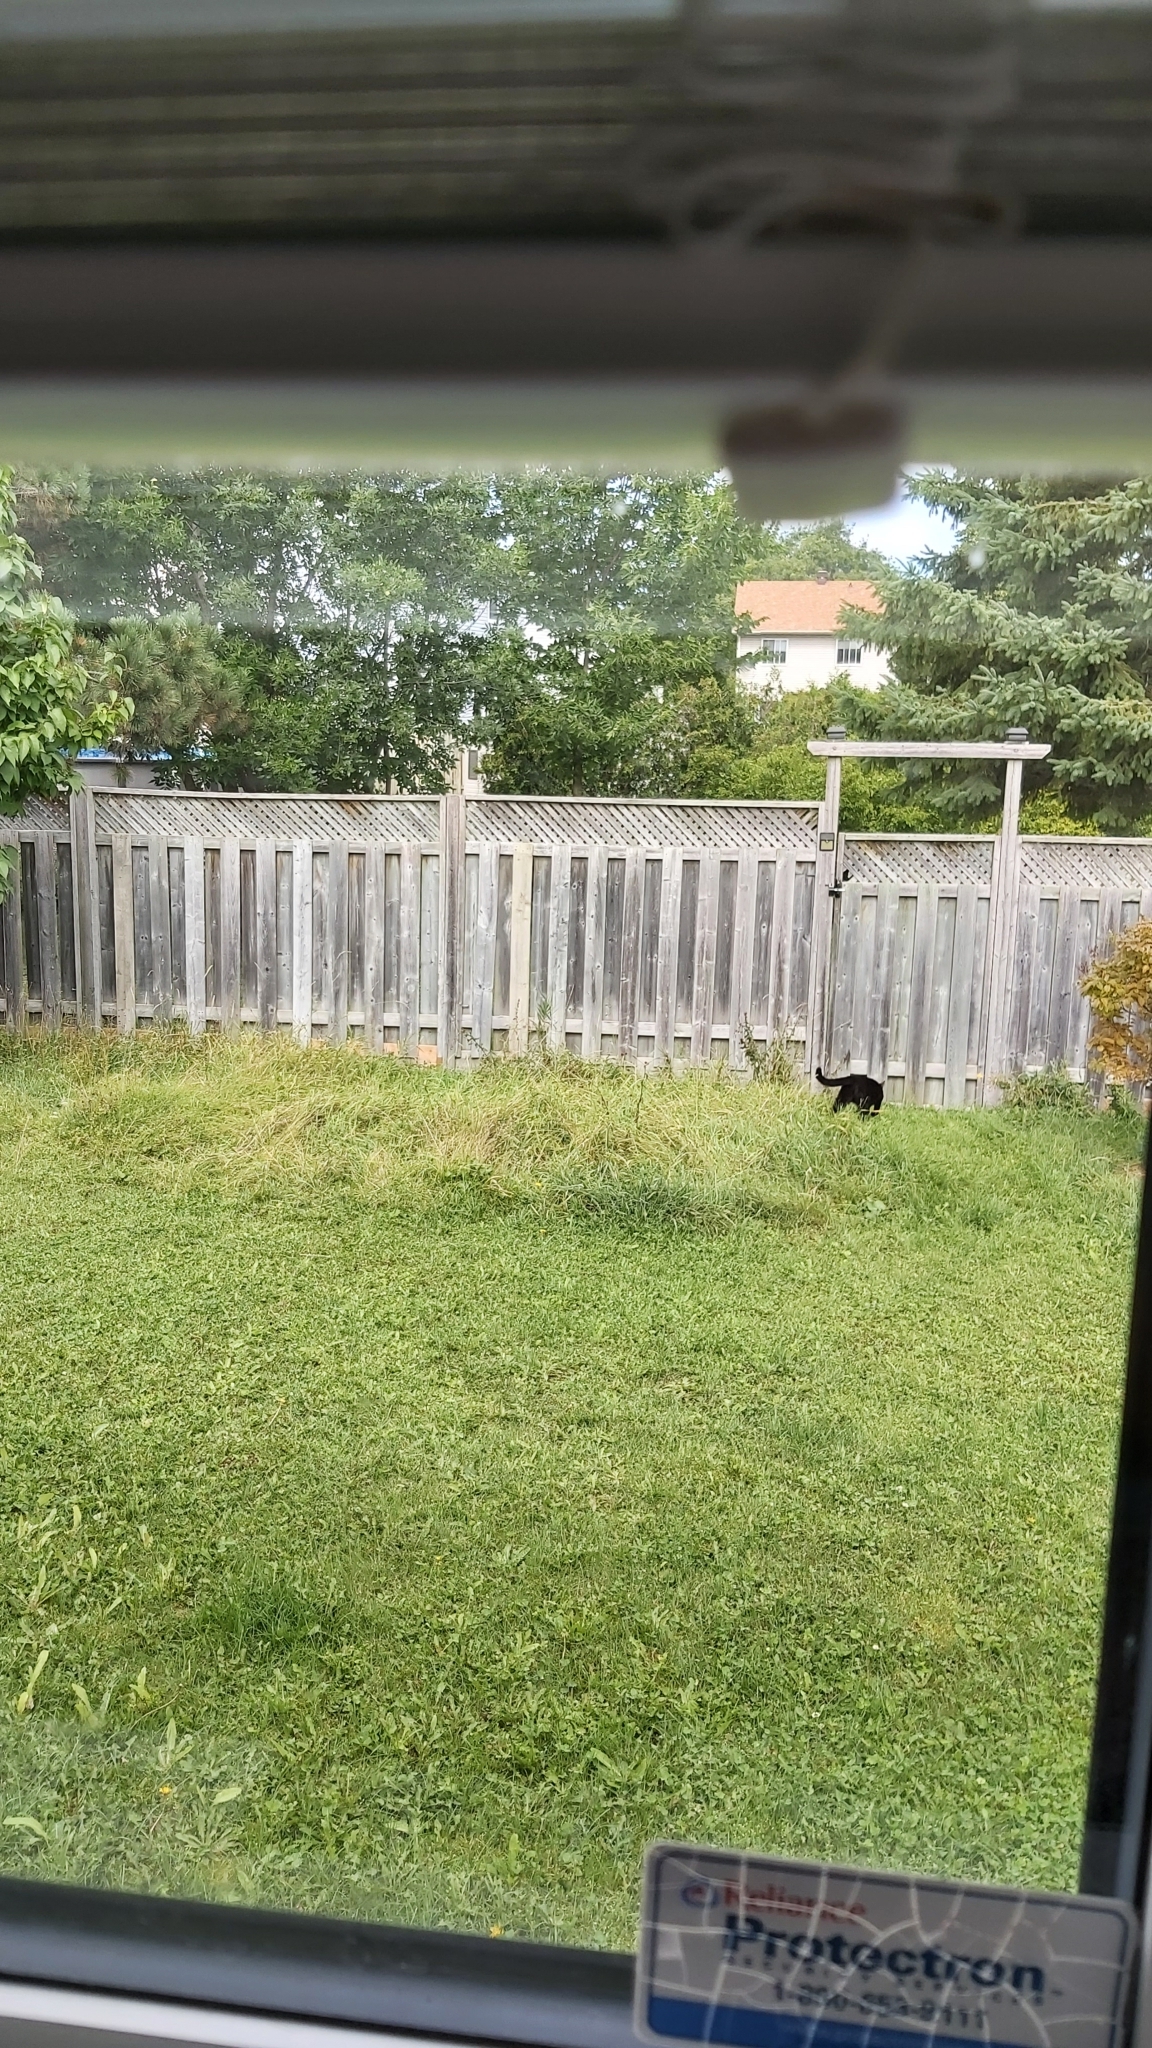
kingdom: Animalia
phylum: Chordata
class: Mammalia
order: Carnivora
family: Felidae
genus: Felis
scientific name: Felis catus
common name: Domestic cat
